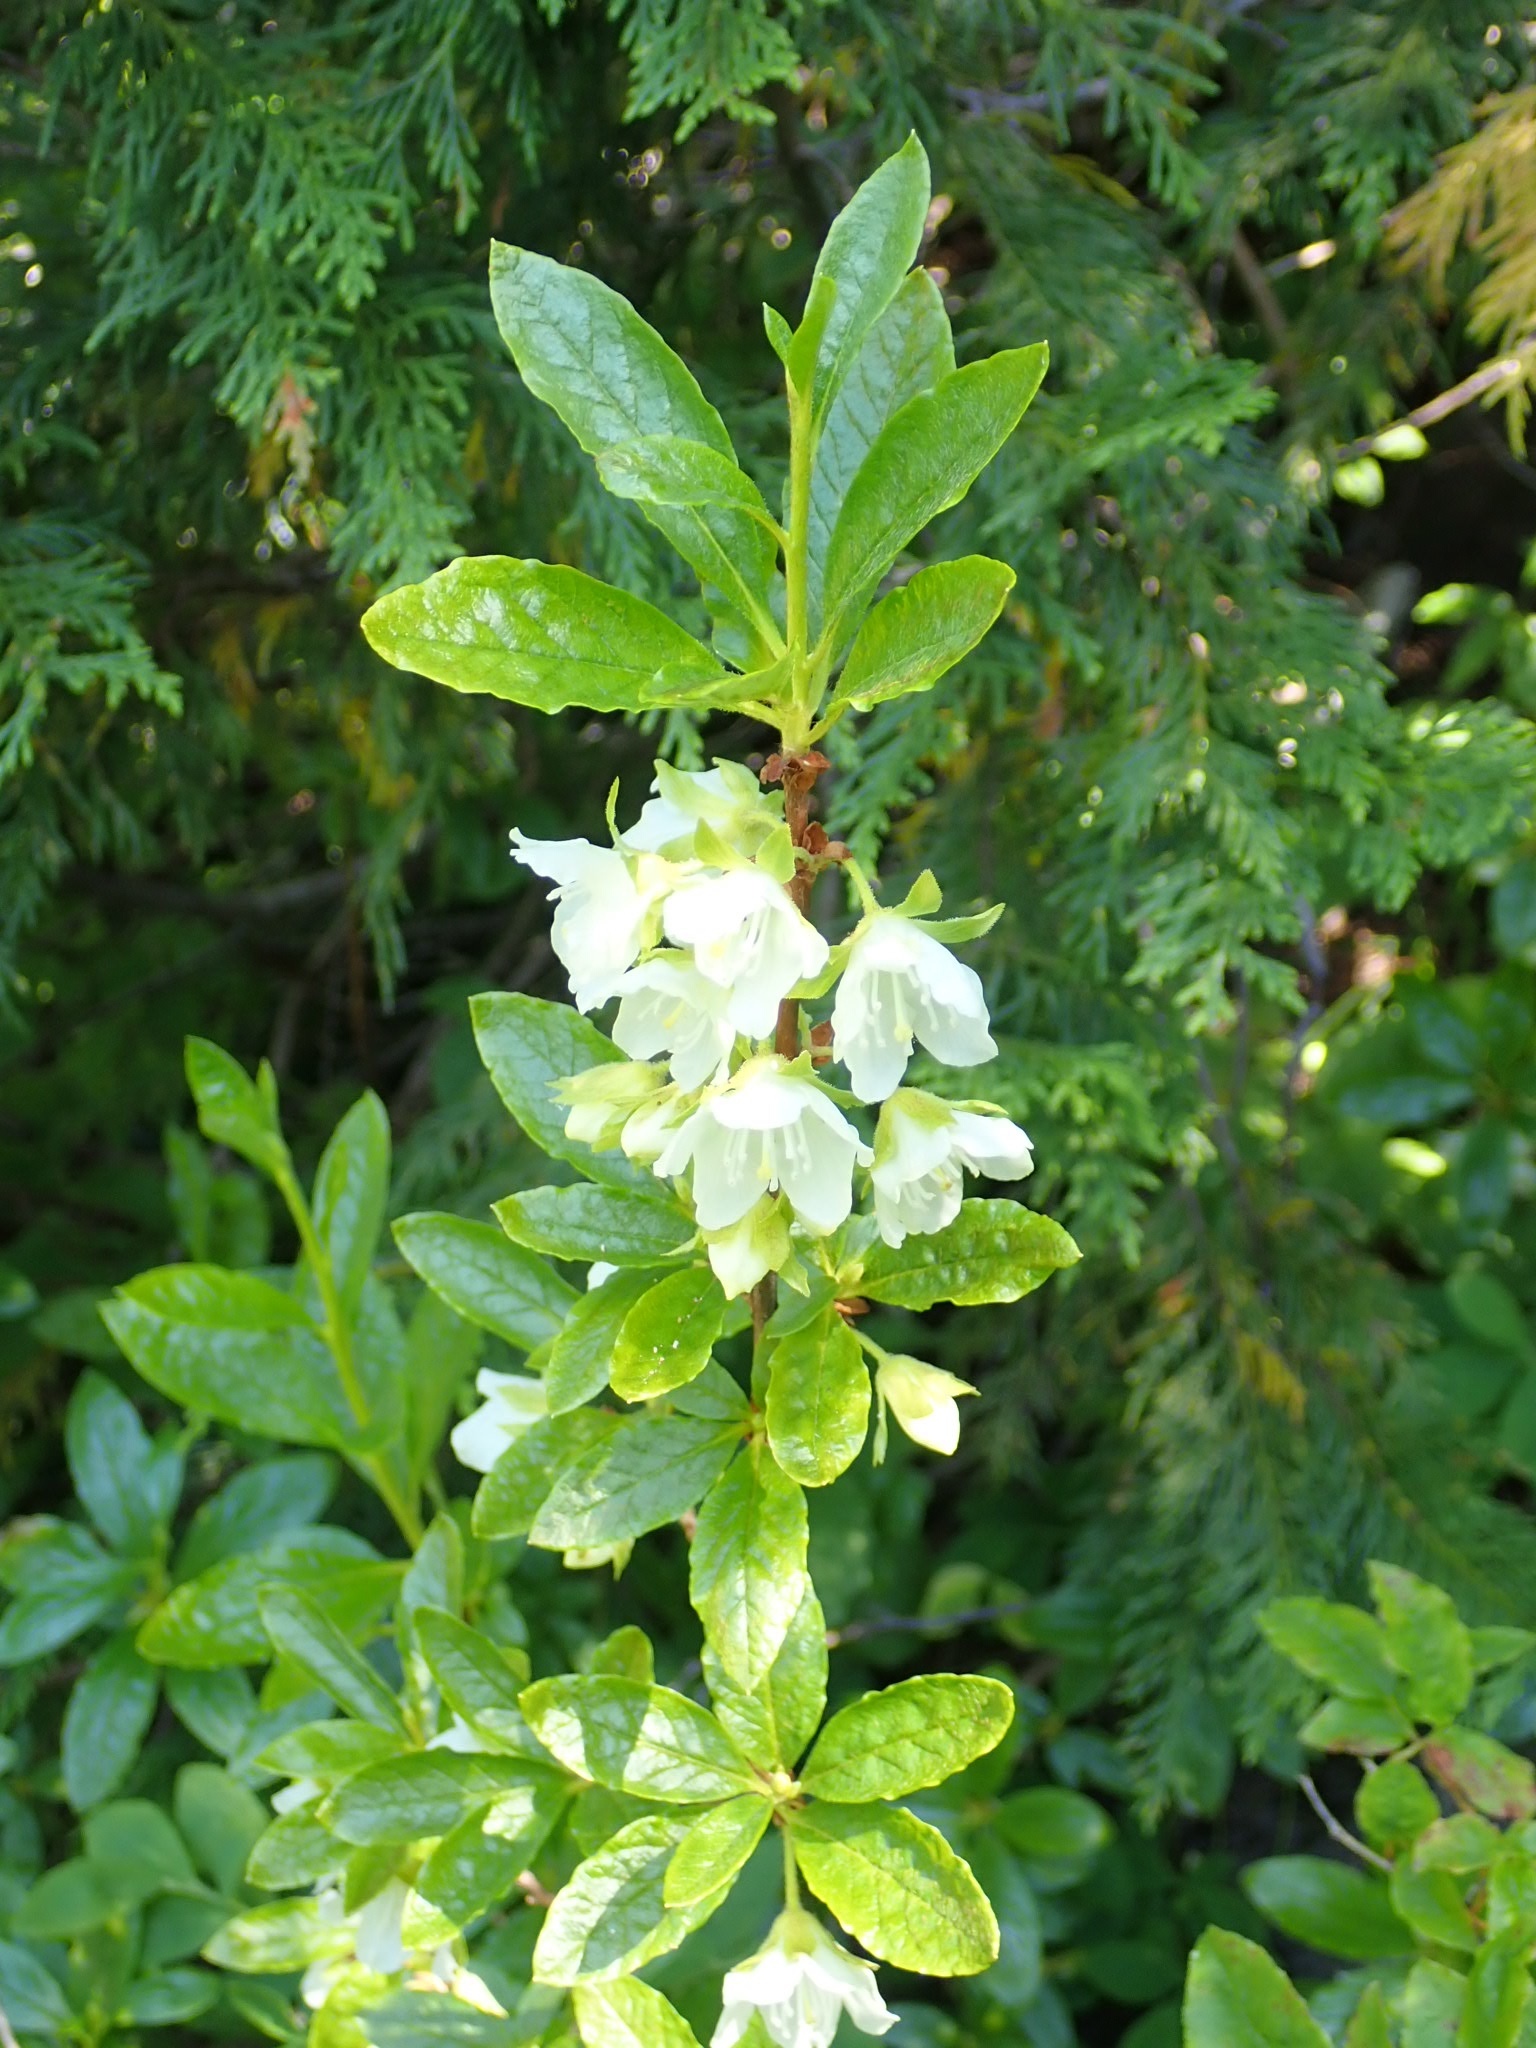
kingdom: Plantae
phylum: Tracheophyta
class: Magnoliopsida
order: Ericales
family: Ericaceae
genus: Rhododendron
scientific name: Rhododendron albiflorum
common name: White rhododendron
